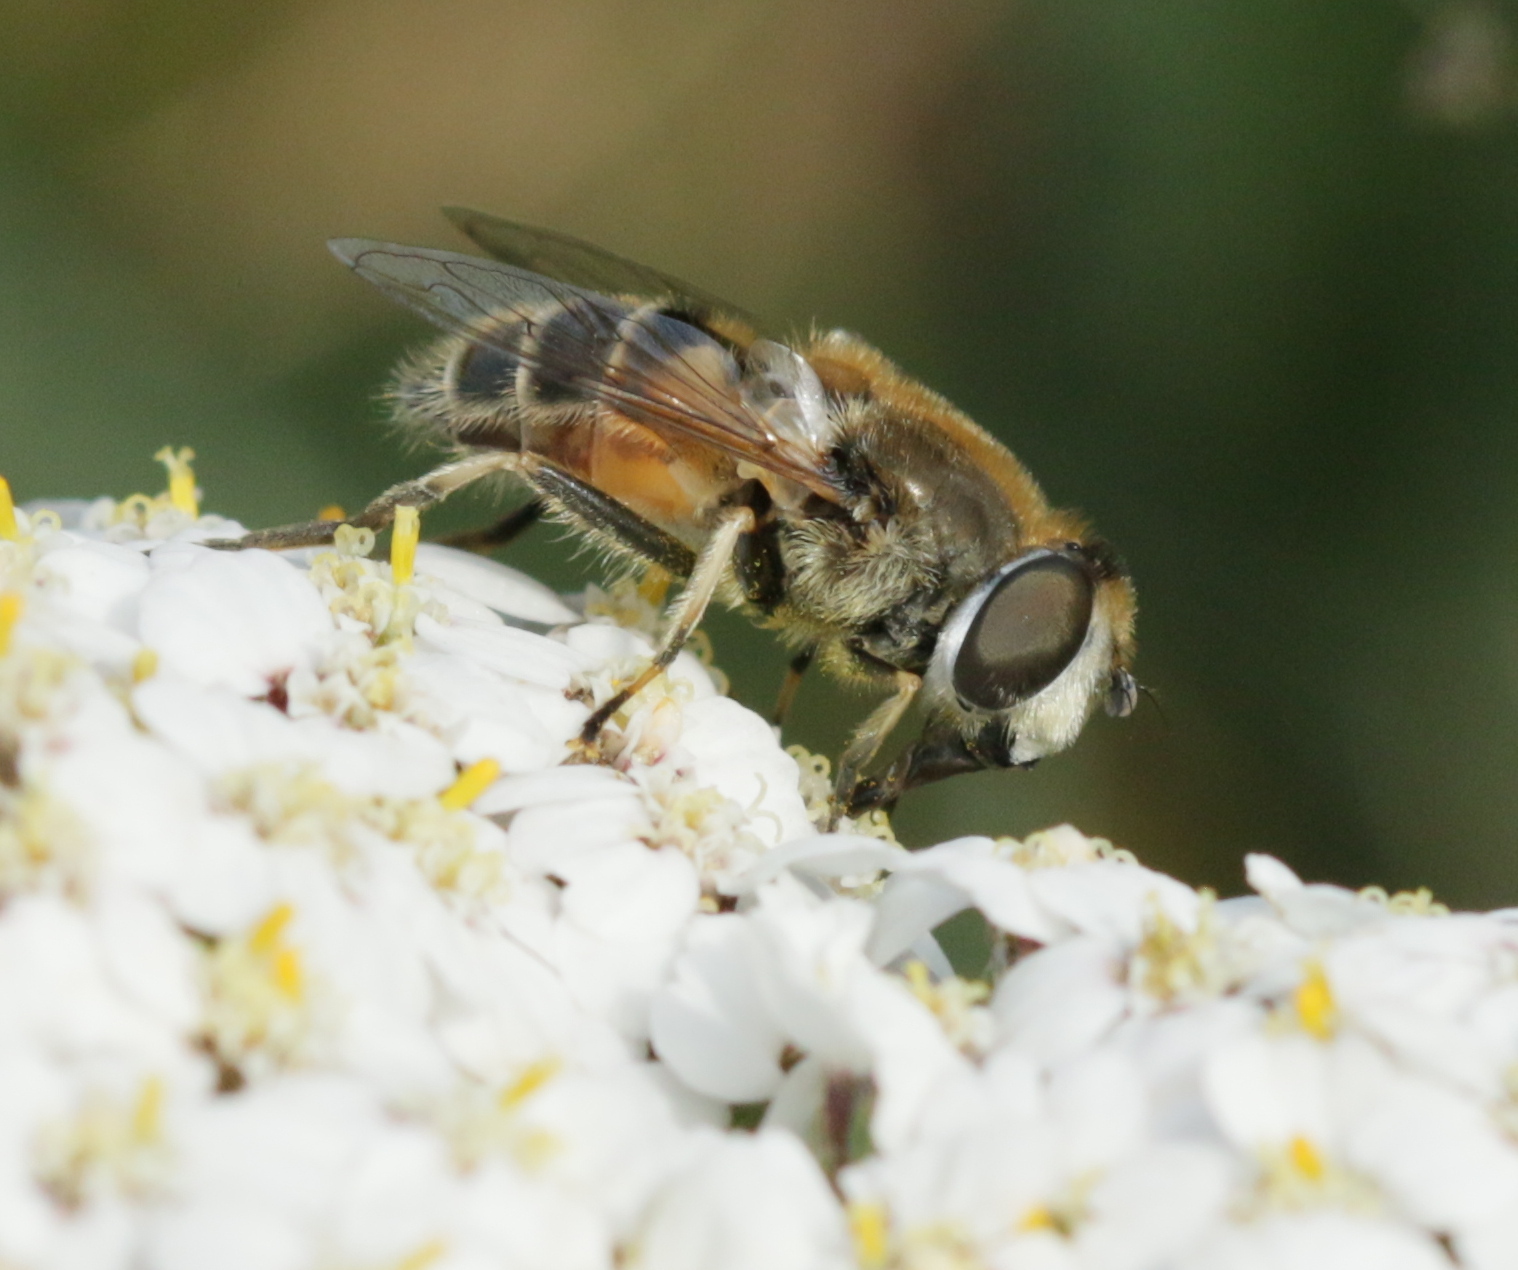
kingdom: Animalia
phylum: Arthropoda
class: Insecta
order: Diptera
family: Syrphidae
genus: Eristalis
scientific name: Eristalis arbustorum
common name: Hover fly
